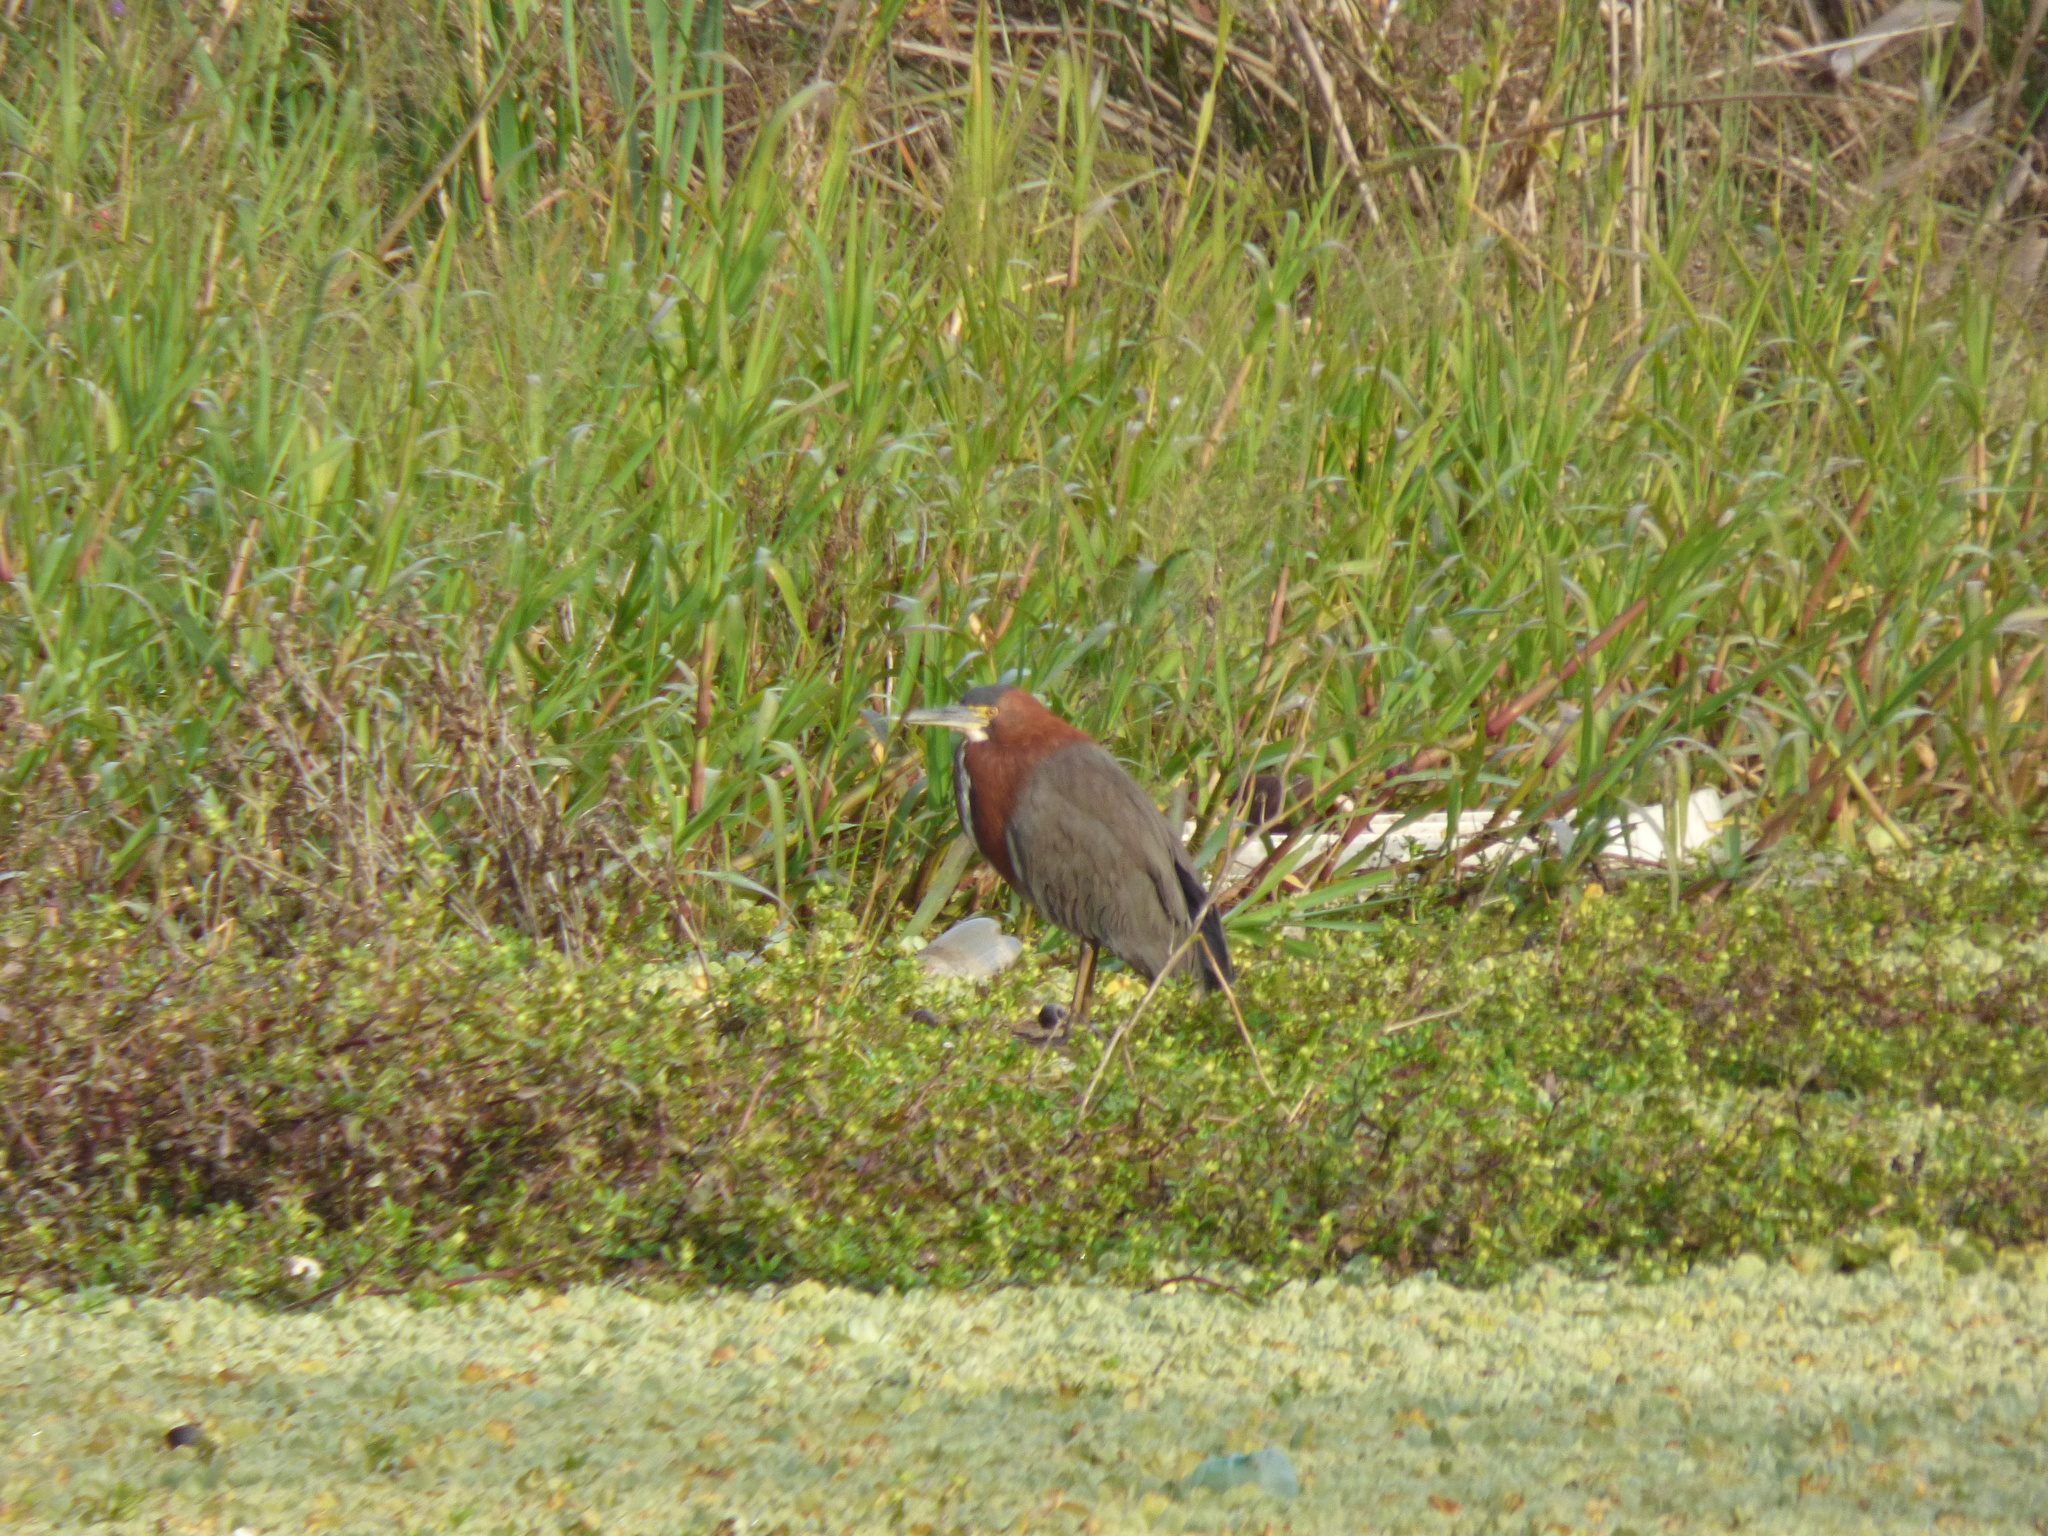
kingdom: Animalia
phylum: Chordata
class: Aves
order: Pelecaniformes
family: Ardeidae
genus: Tigrisoma
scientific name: Tigrisoma lineatum
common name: Rufescent tiger-heron
